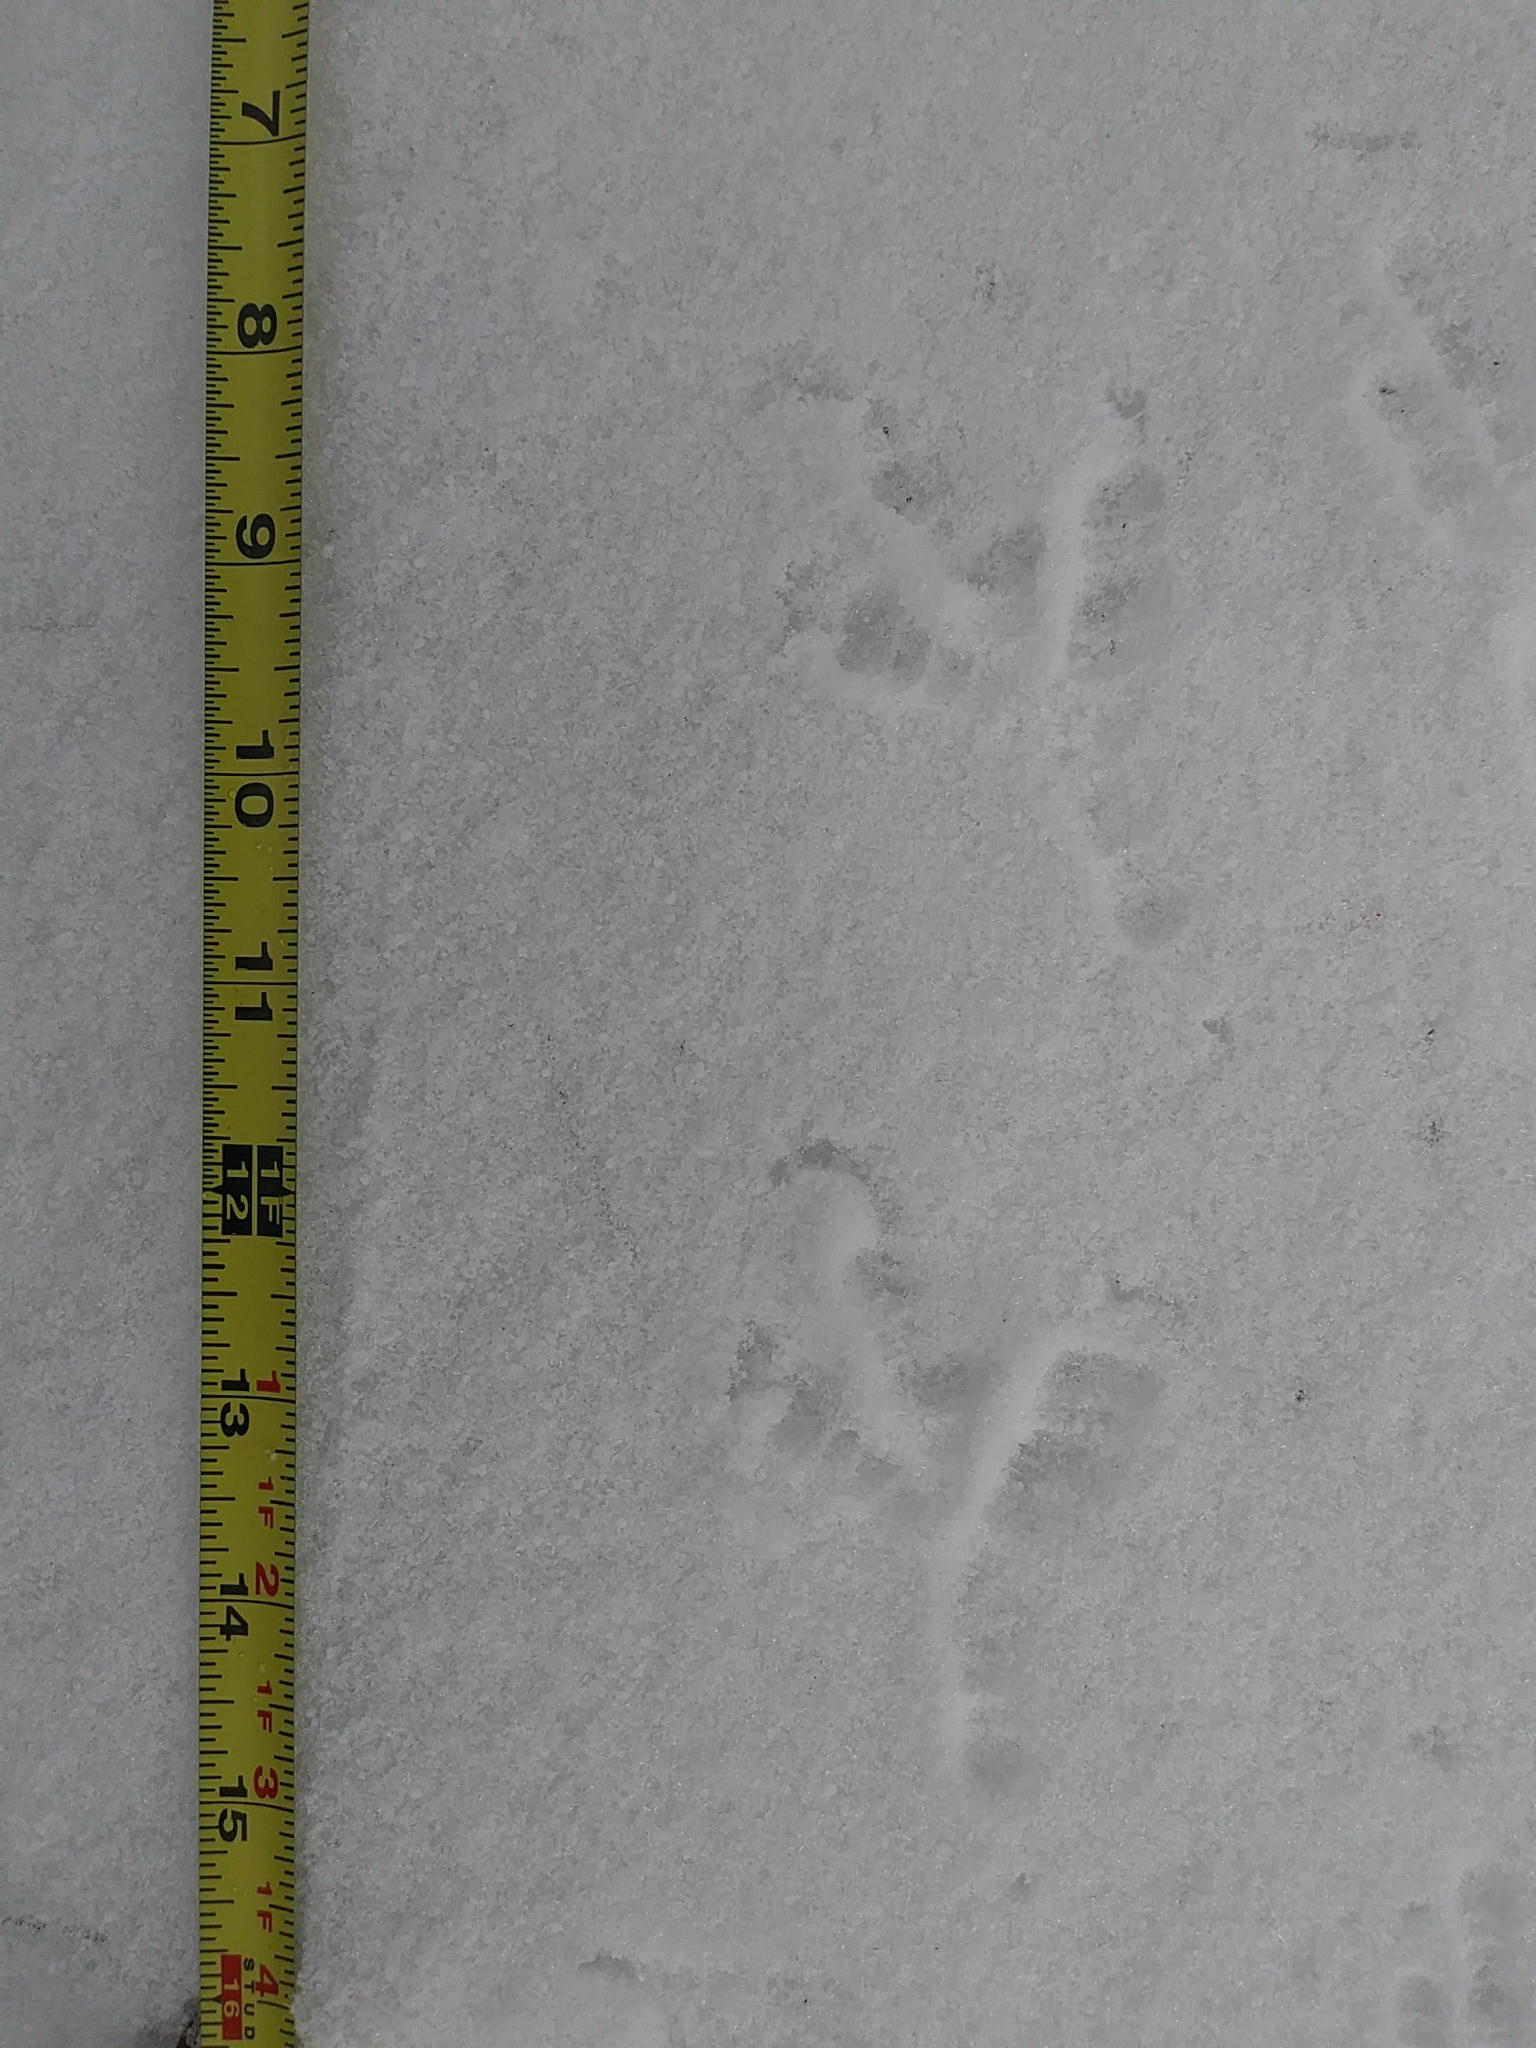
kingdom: Animalia
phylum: Chordata
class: Aves
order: Passeriformes
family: Corvidae
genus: Corvus
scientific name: Corvus brachyrhynchos
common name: American crow
